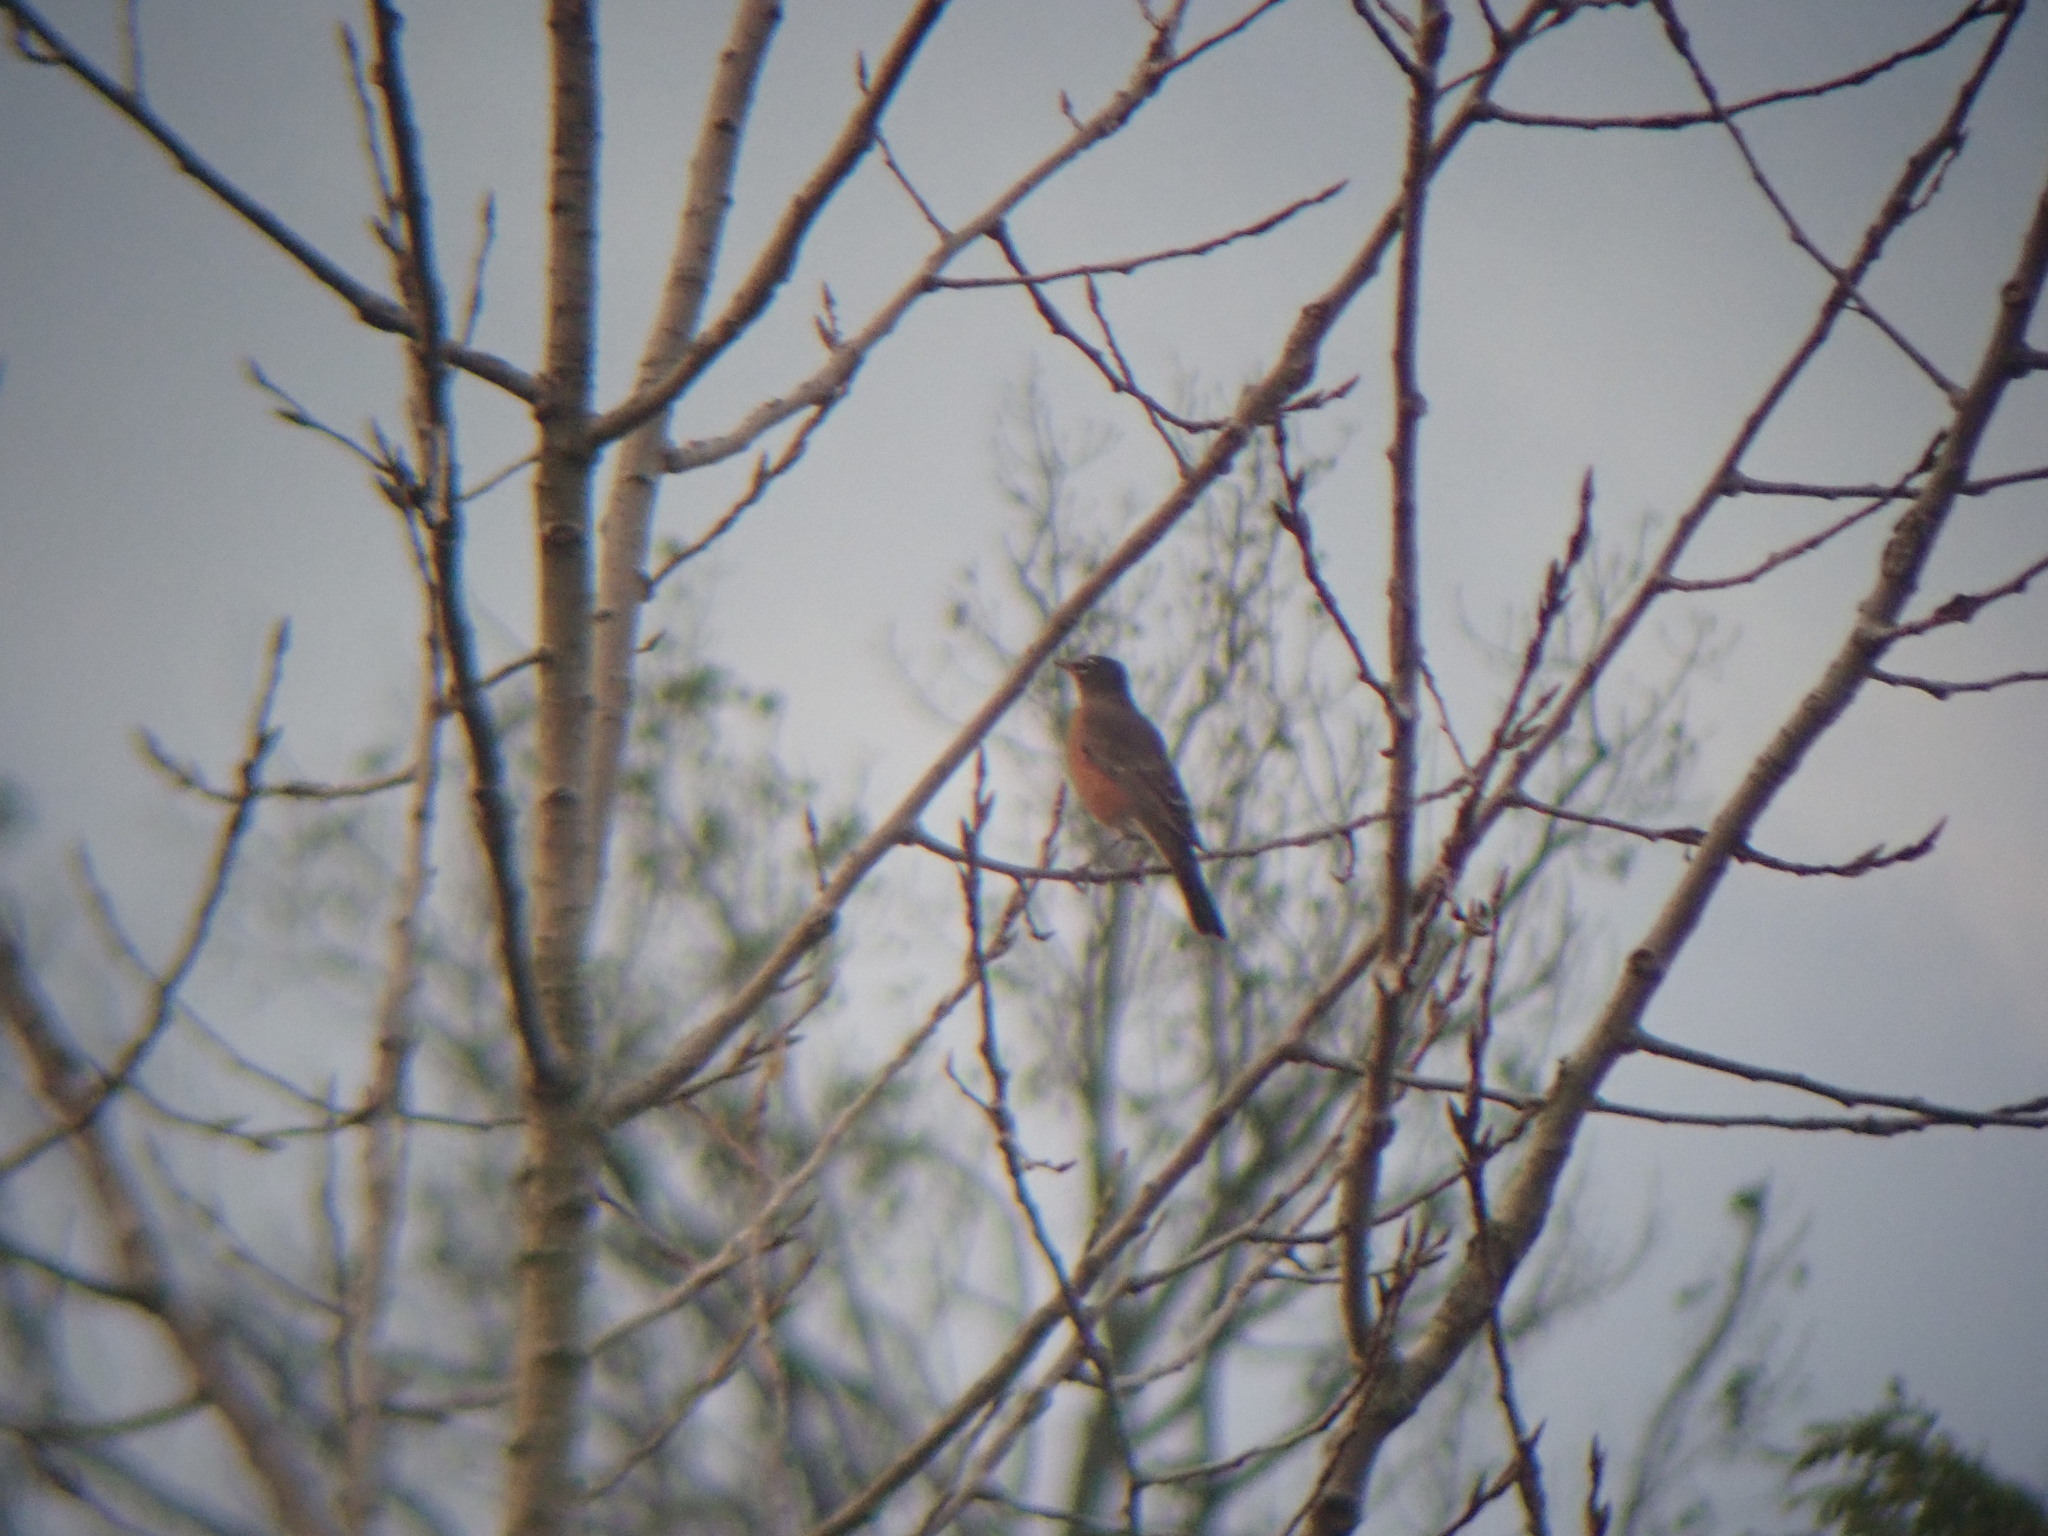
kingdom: Animalia
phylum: Chordata
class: Aves
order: Passeriformes
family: Turdidae
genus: Turdus
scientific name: Turdus migratorius
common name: American robin
